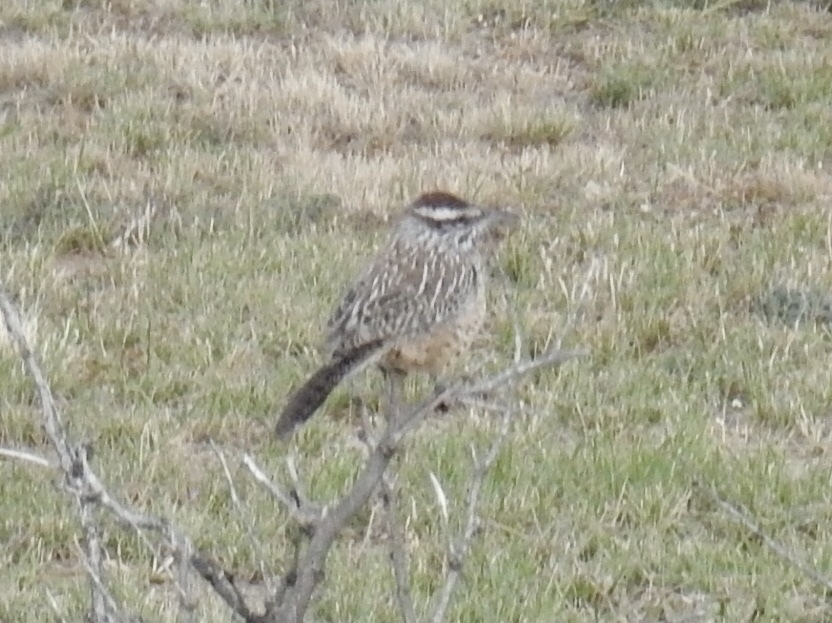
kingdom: Animalia
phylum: Chordata
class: Aves
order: Passeriformes
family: Troglodytidae
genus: Campylorhynchus
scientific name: Campylorhynchus brunneicapillus
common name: Cactus wren
